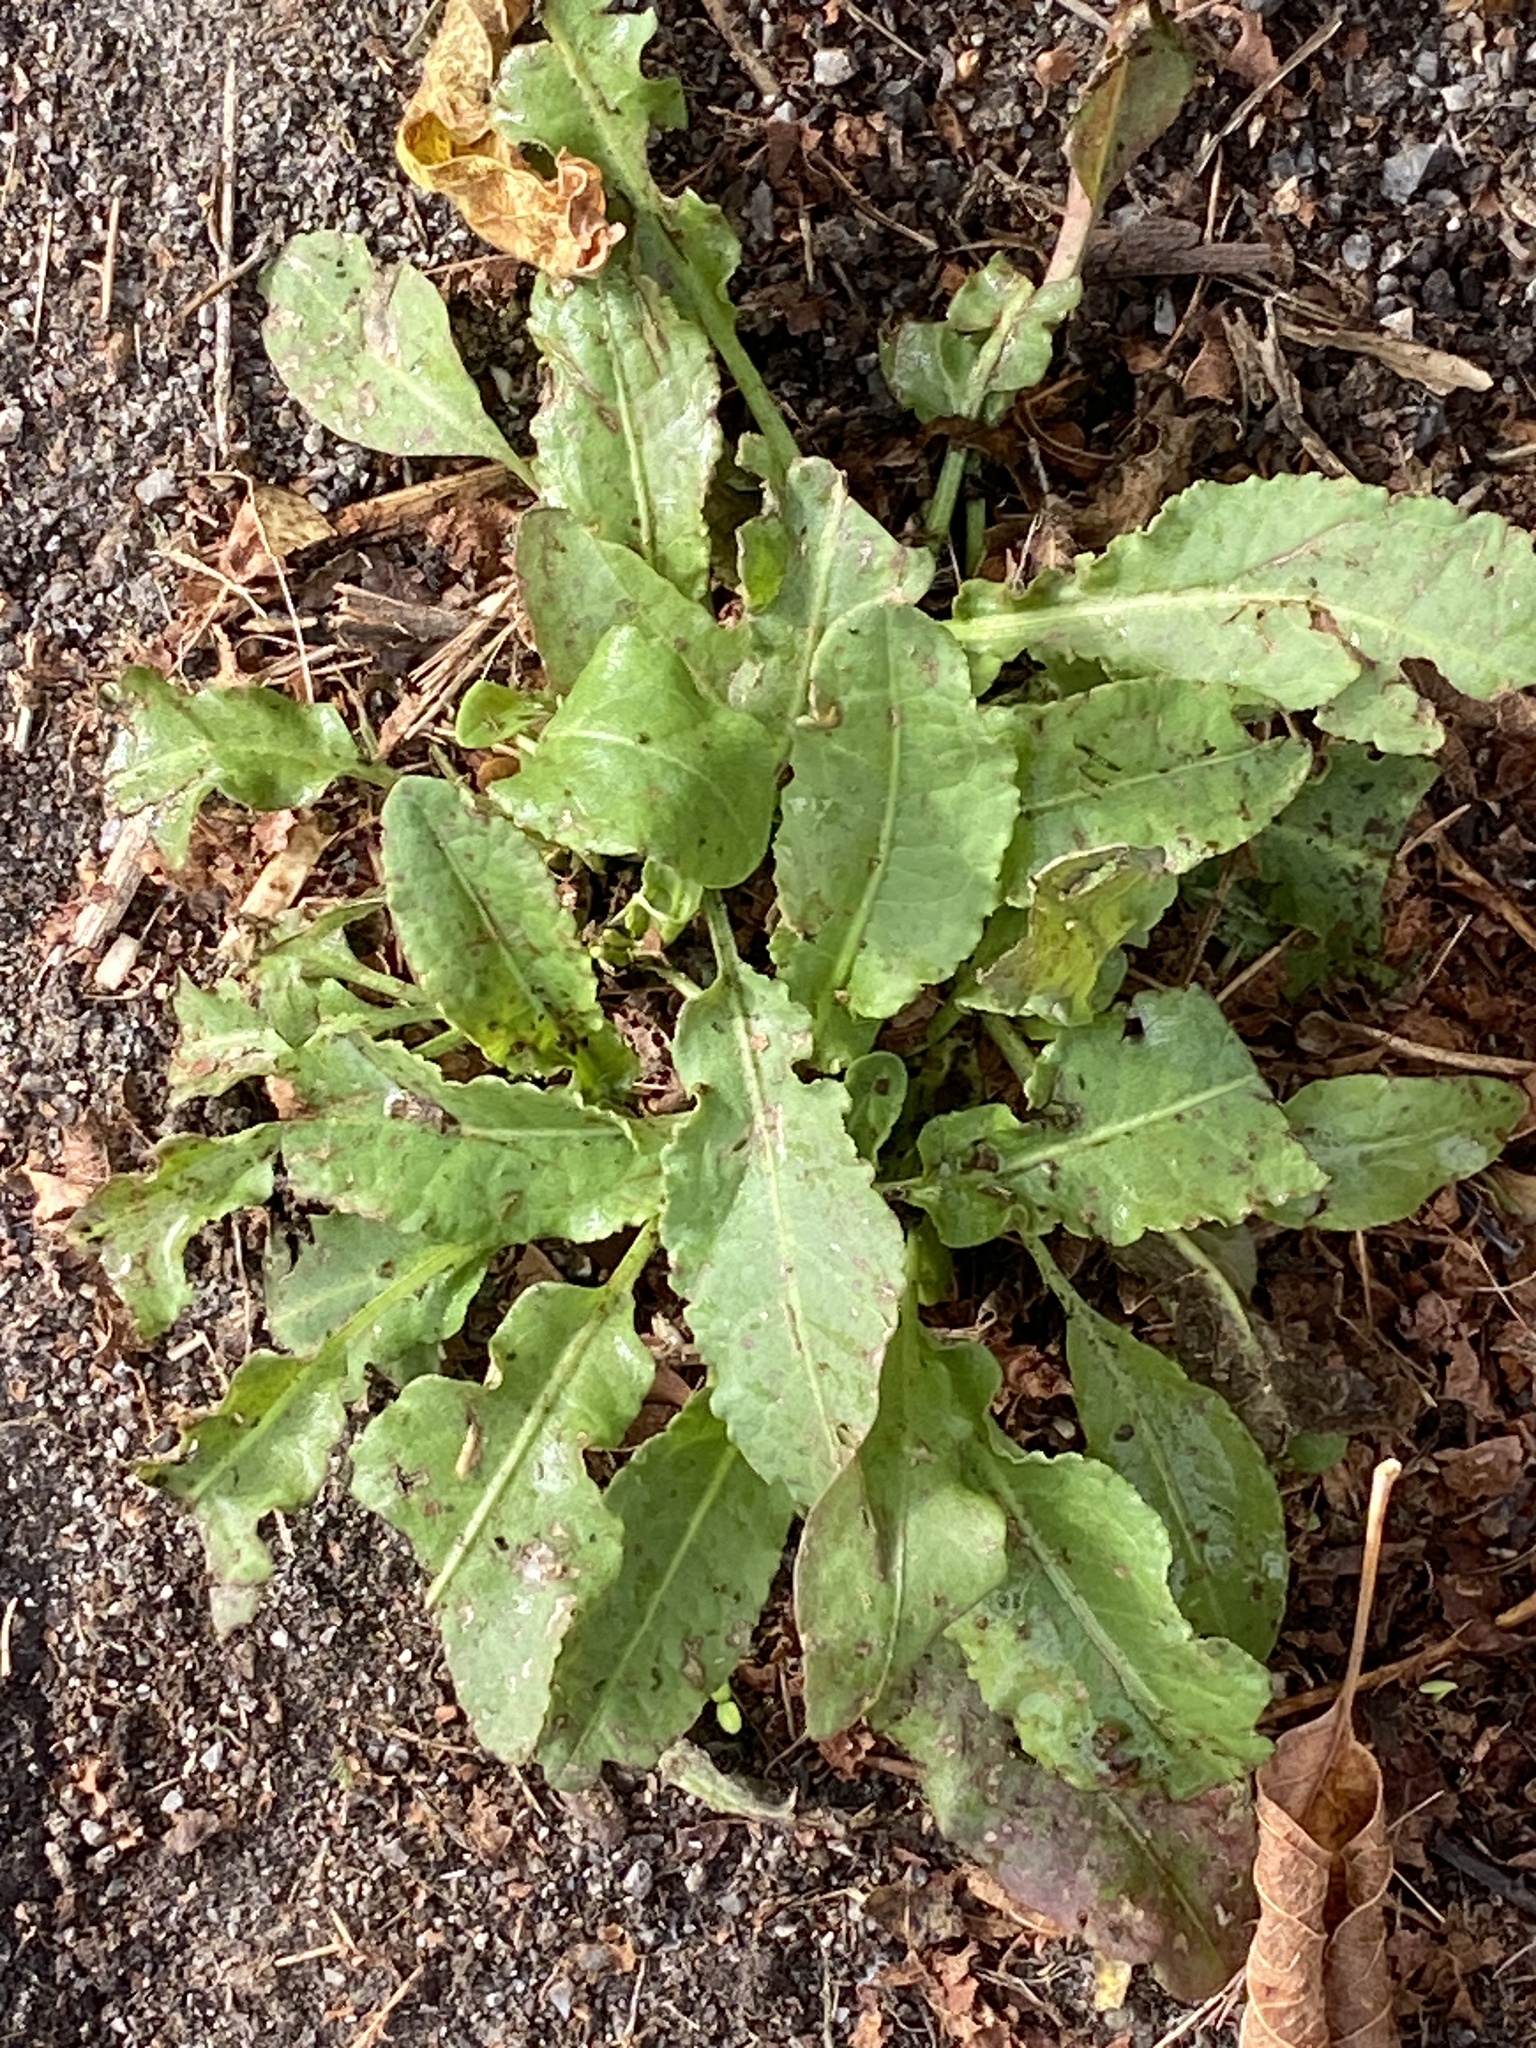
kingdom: Plantae
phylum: Tracheophyta
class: Magnoliopsida
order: Caryophyllales
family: Polygonaceae
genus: Rumex
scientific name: Rumex crispus
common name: Curled dock
